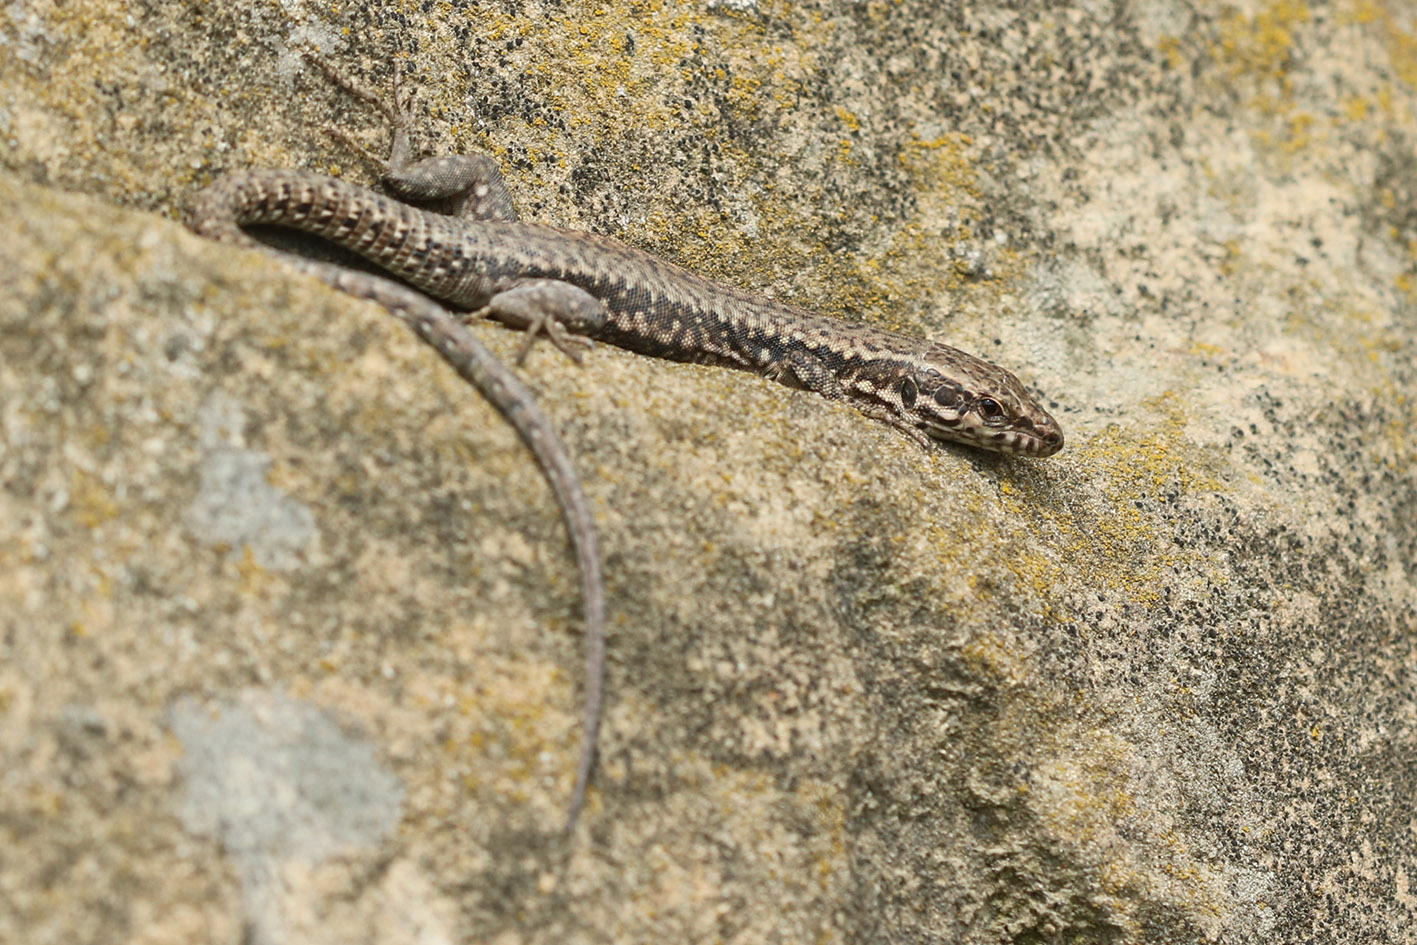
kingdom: Animalia
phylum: Chordata
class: Squamata
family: Lacertidae
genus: Podarcis
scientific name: Podarcis muralis
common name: Common wall lizard
